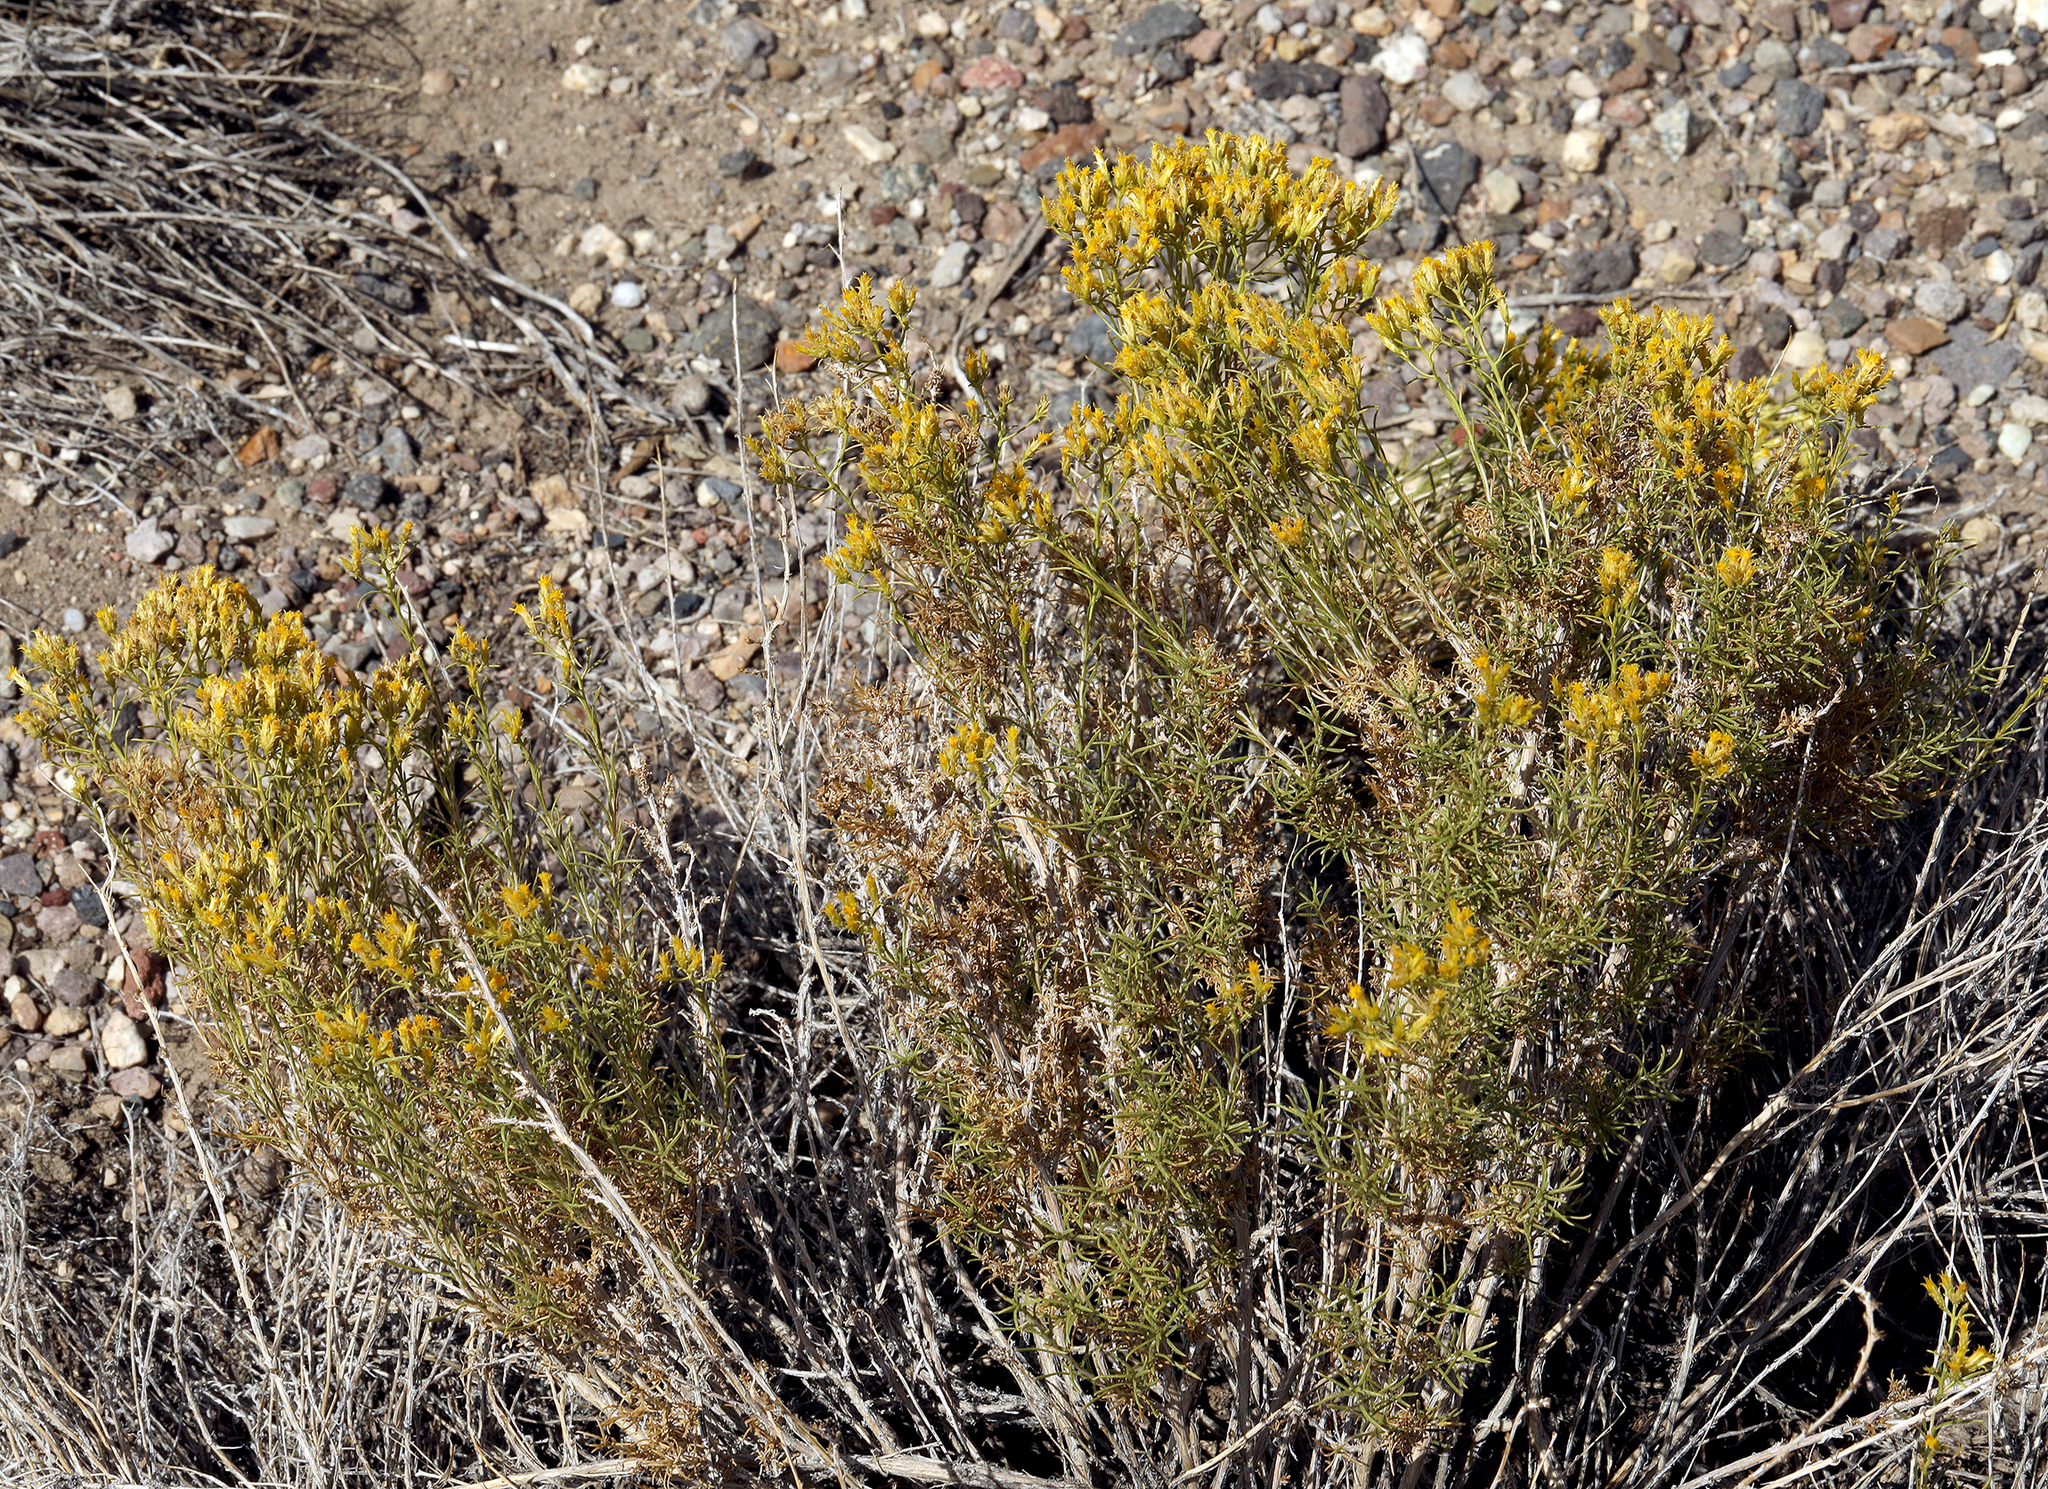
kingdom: Plantae
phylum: Tracheophyta
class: Magnoliopsida
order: Asterales
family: Asteraceae
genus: Chrysothamnus
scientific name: Chrysothamnus greenei
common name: Greene's rabbitbrush
